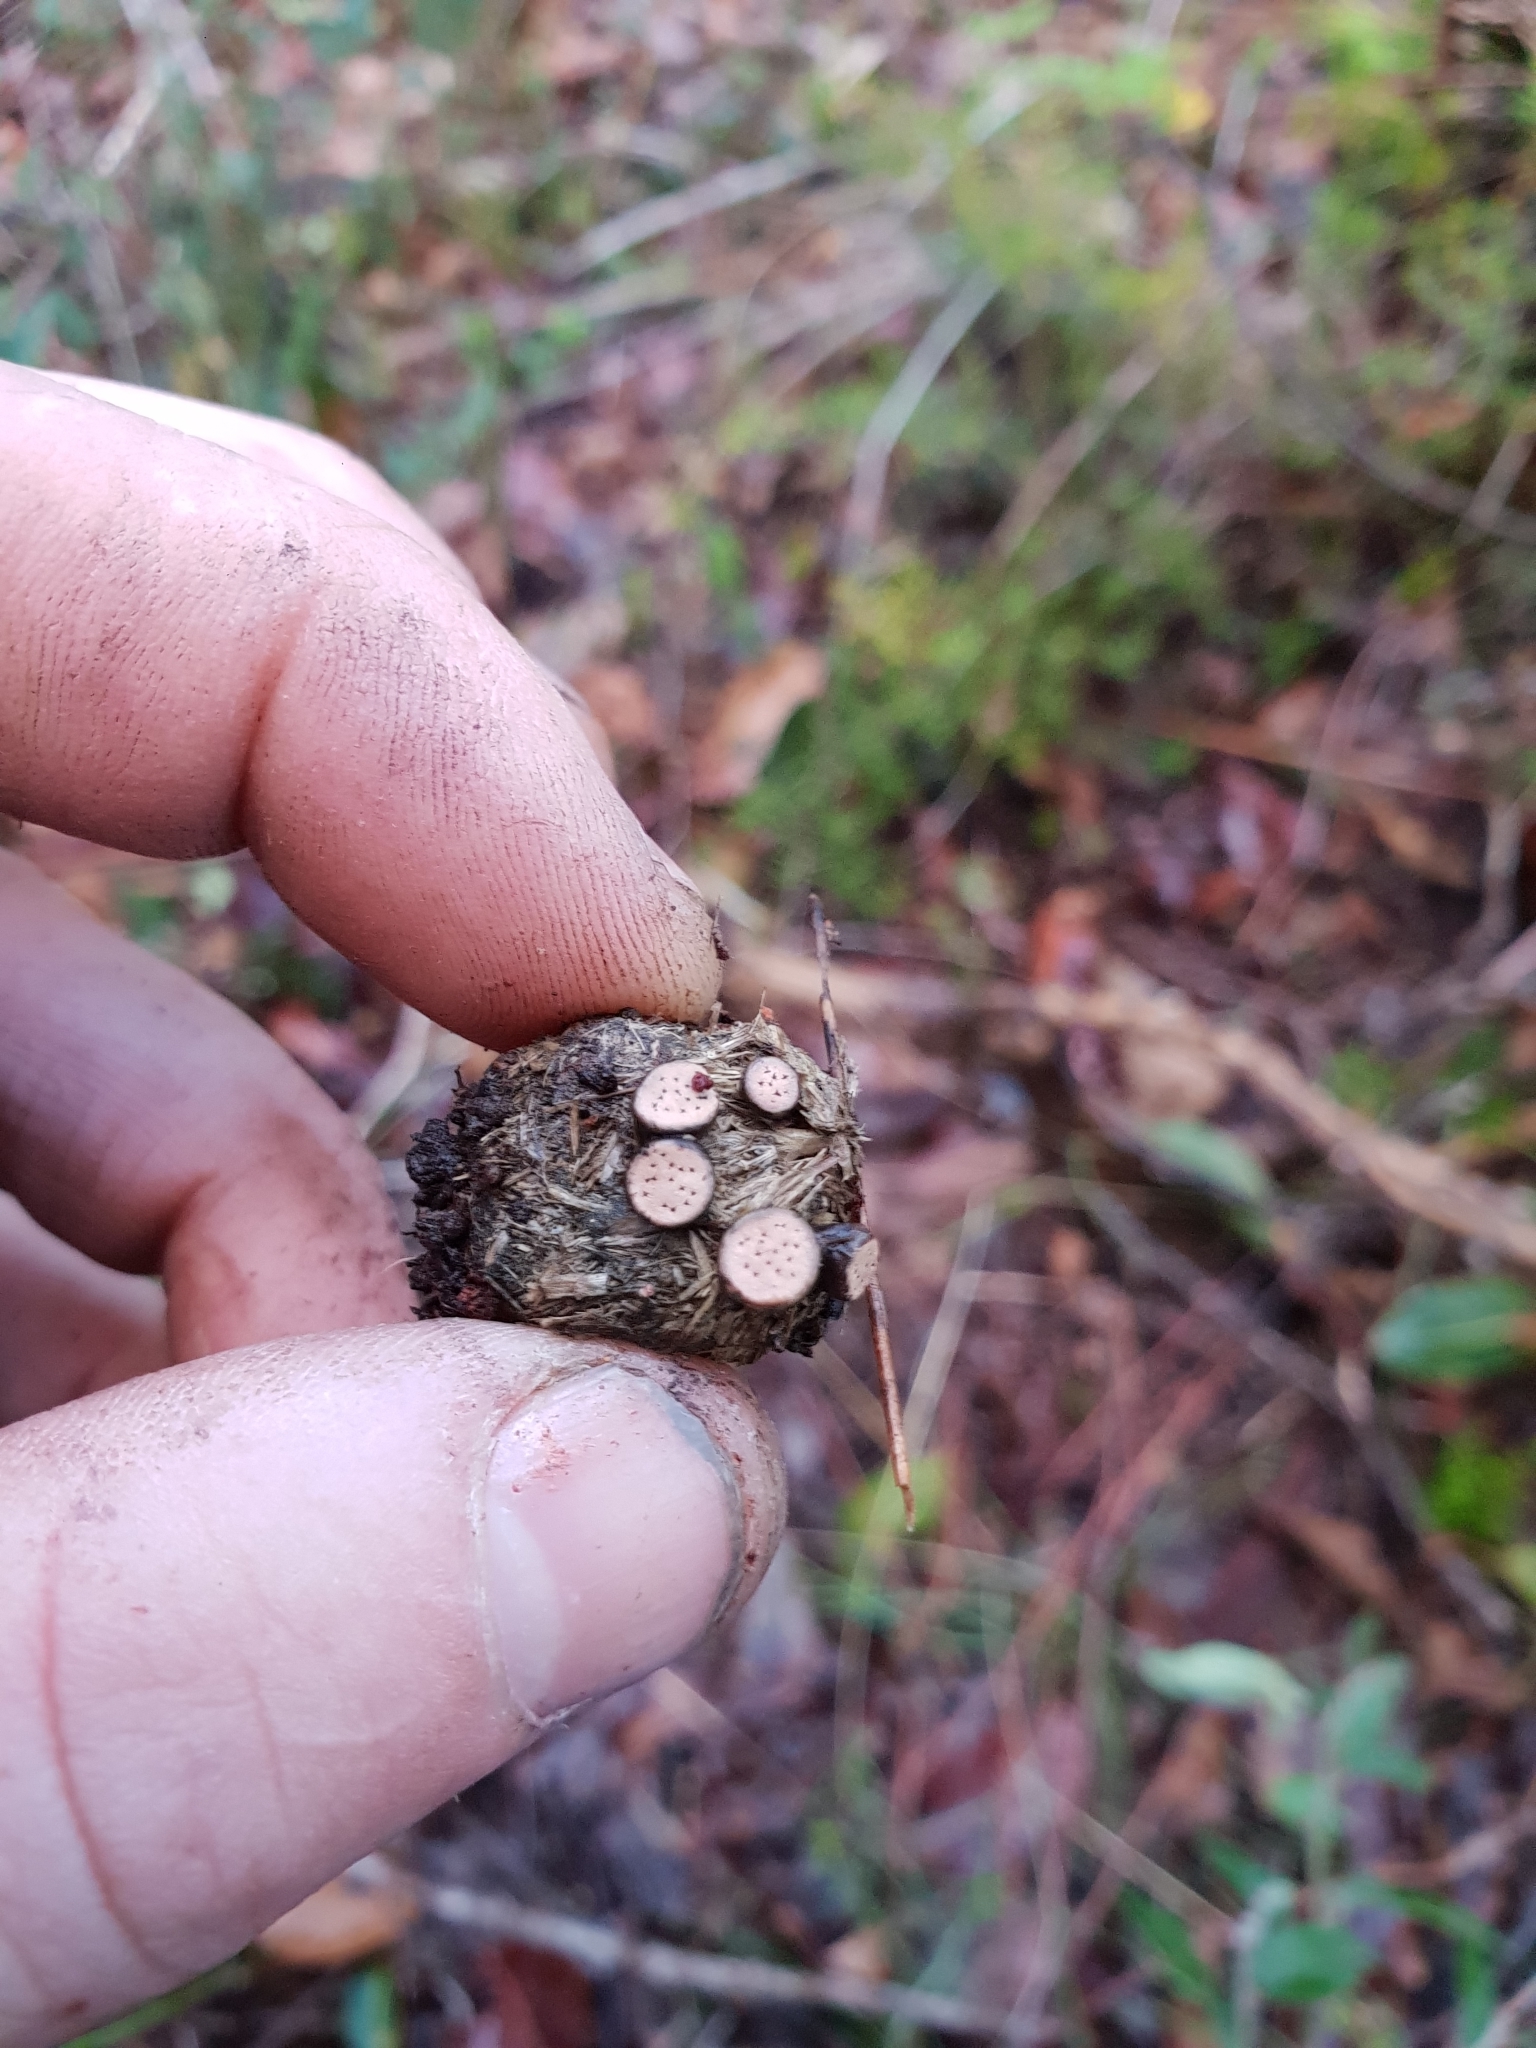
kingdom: Fungi
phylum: Ascomycota
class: Sordariomycetes
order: Xylariales
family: Xylariaceae
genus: Poronia
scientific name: Poronia erici
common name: Dung button
